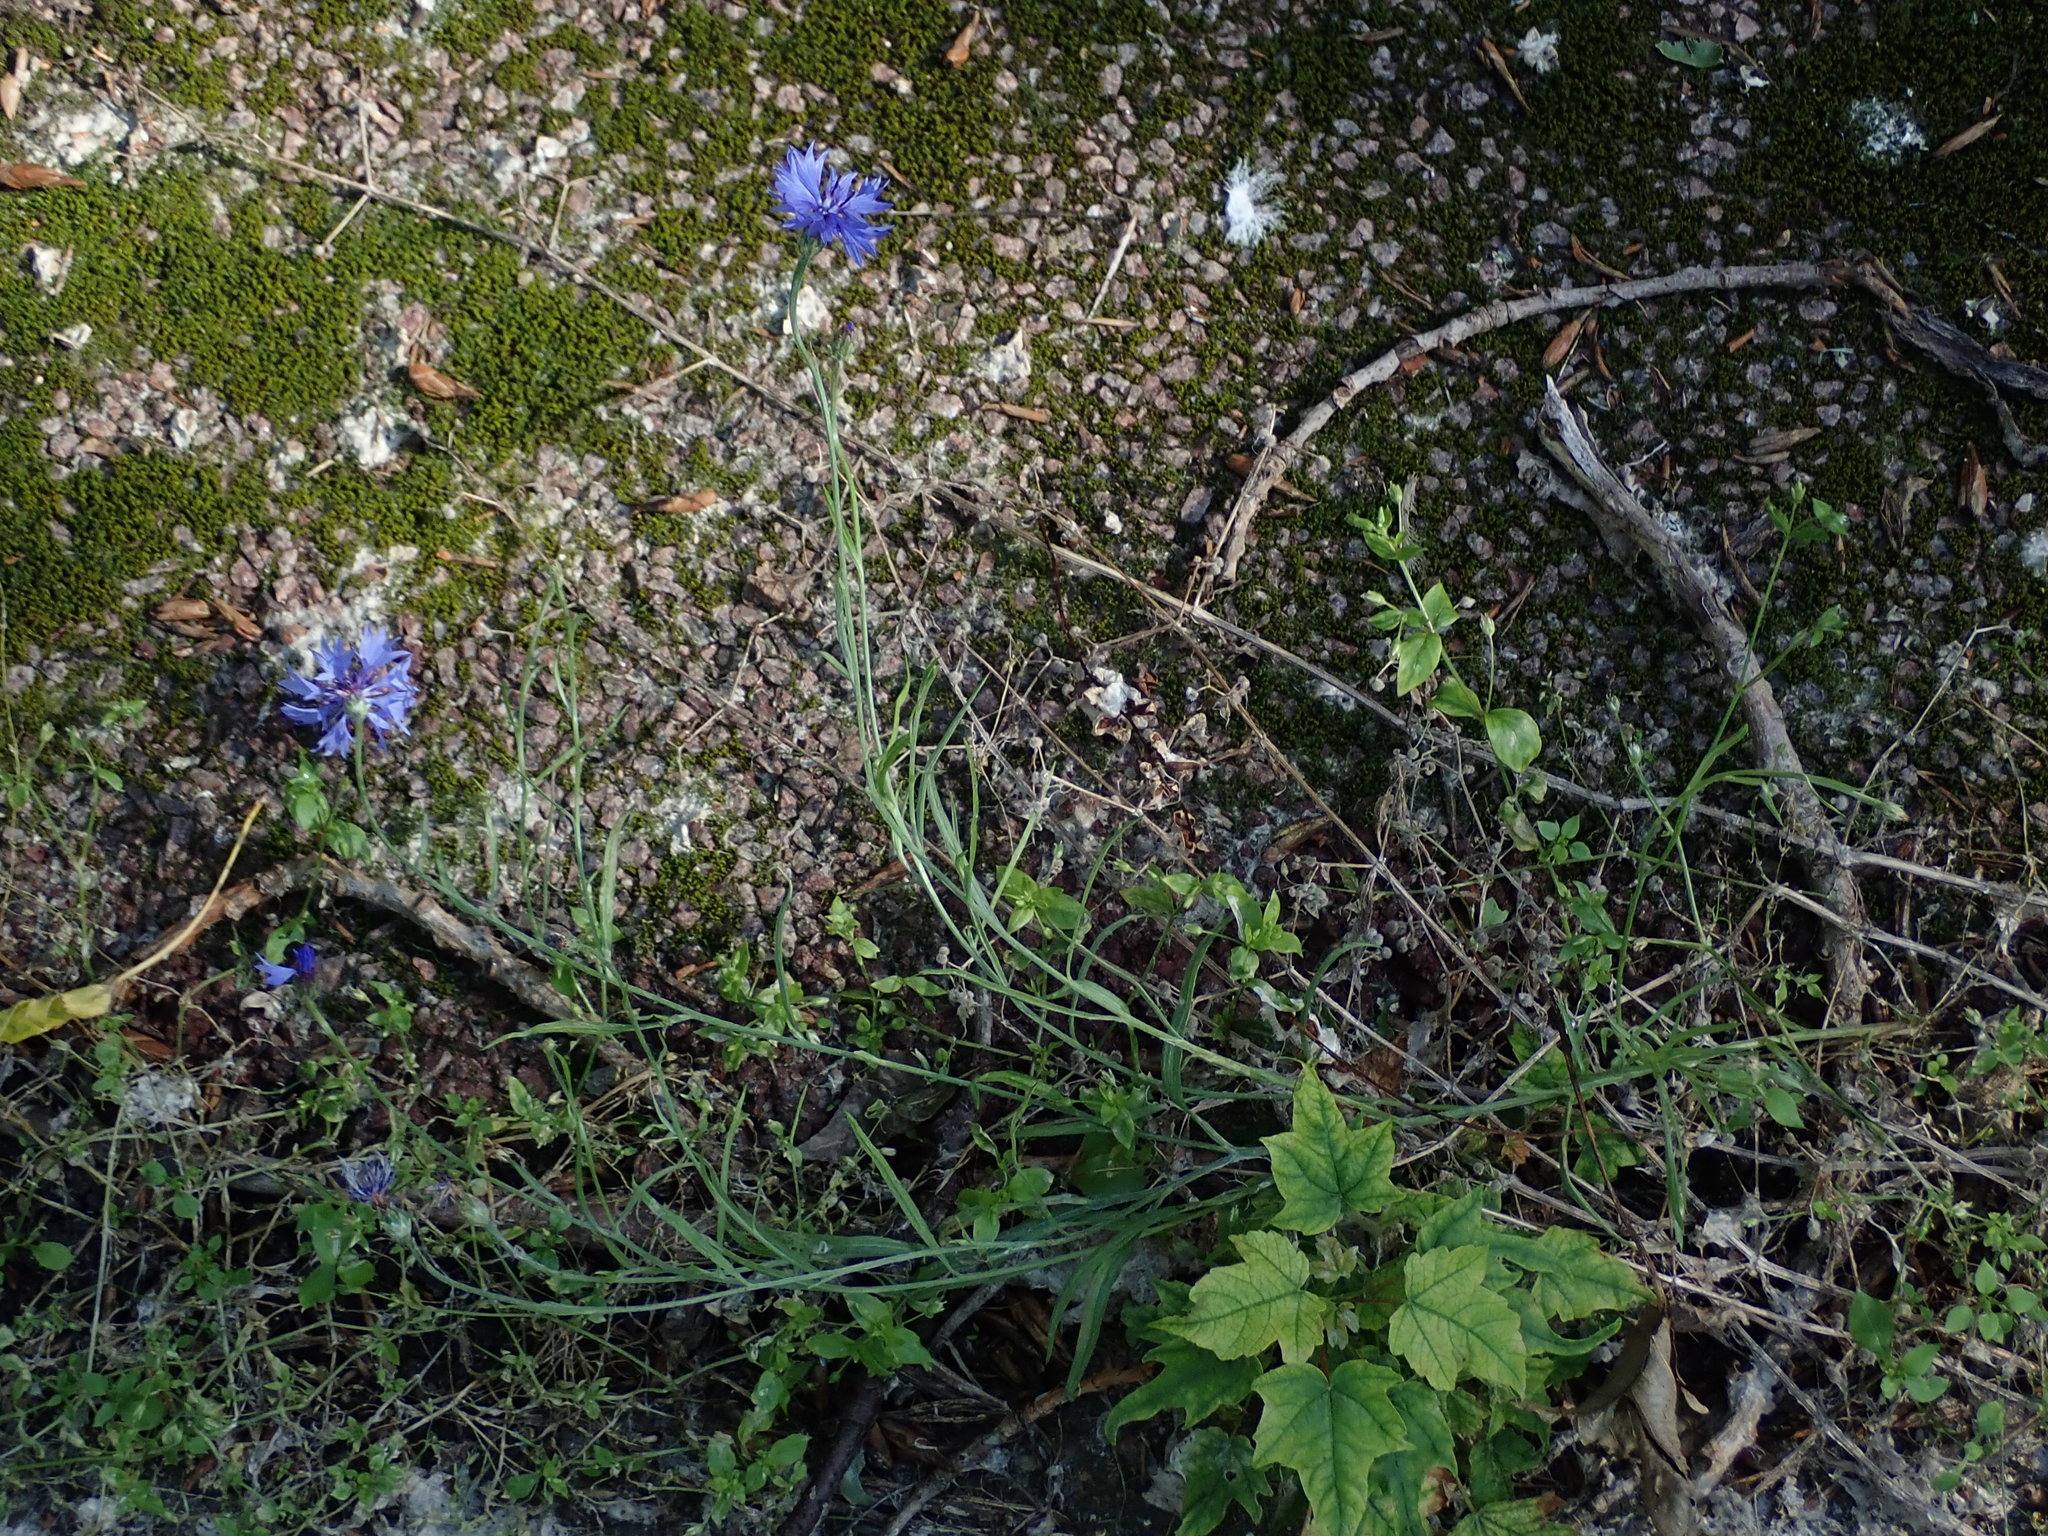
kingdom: Plantae
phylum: Tracheophyta
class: Magnoliopsida
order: Asterales
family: Asteraceae
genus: Centaurea
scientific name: Centaurea cyanus
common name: Cornflower
